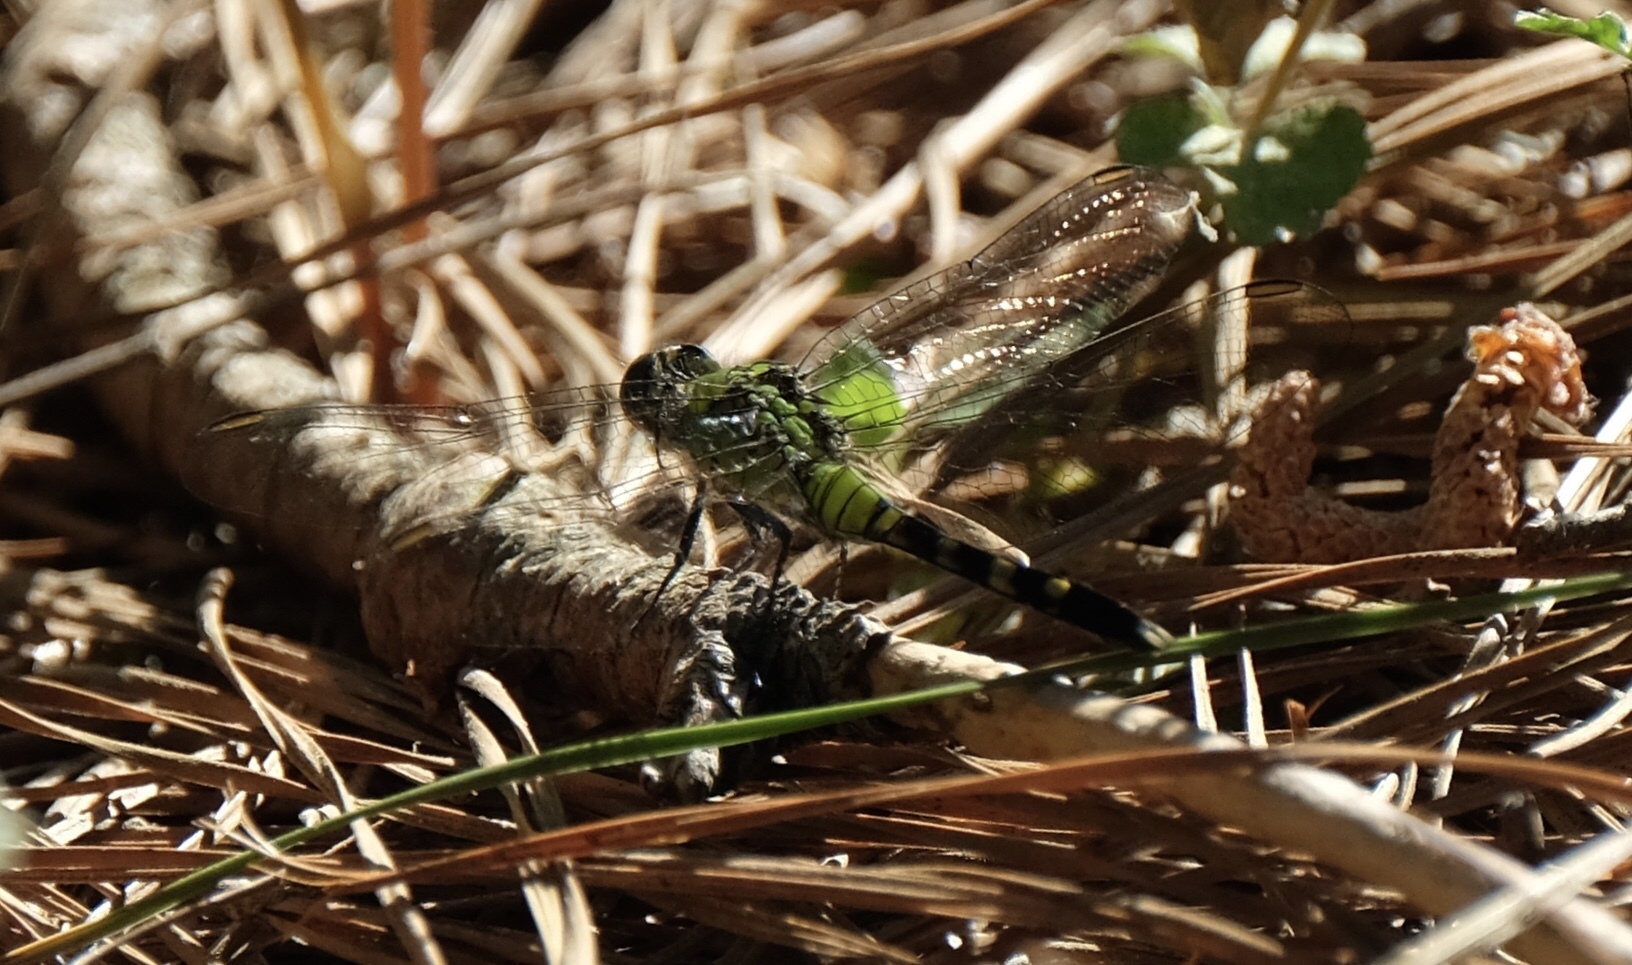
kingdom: Animalia
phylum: Arthropoda
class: Insecta
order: Odonata
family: Libellulidae
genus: Erythemis
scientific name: Erythemis simplicicollis
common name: Eastern pondhawk
